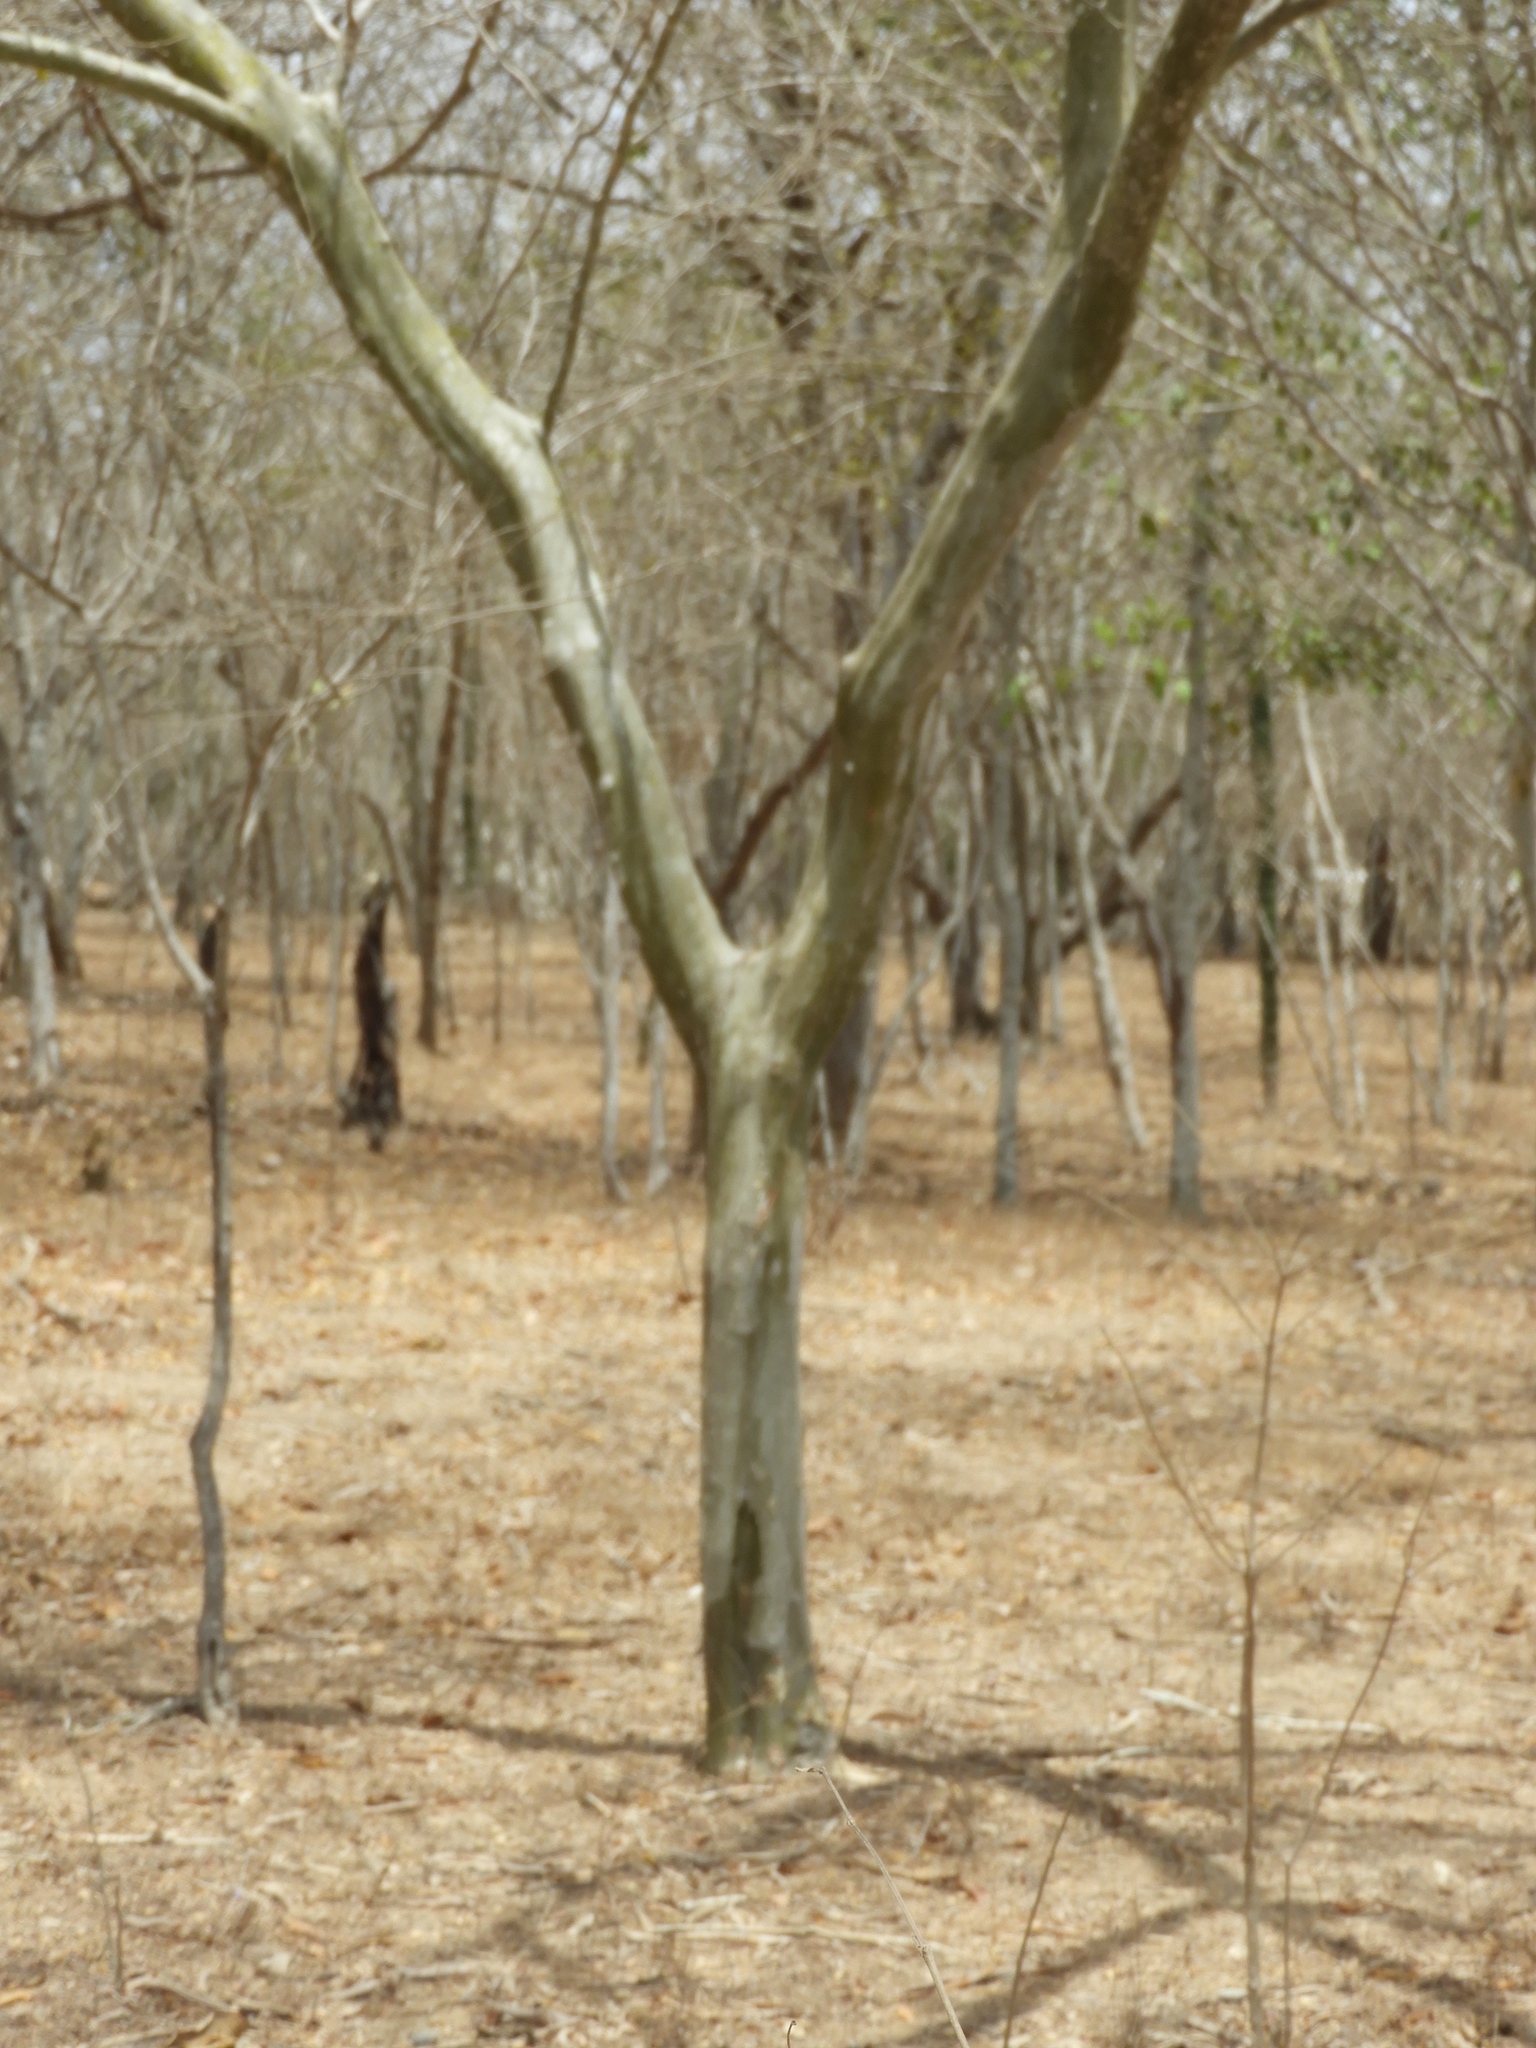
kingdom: Plantae
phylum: Tracheophyta
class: Magnoliopsida
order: Fabales
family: Fabaceae
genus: Chloroleucon
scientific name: Chloroleucon mangense
